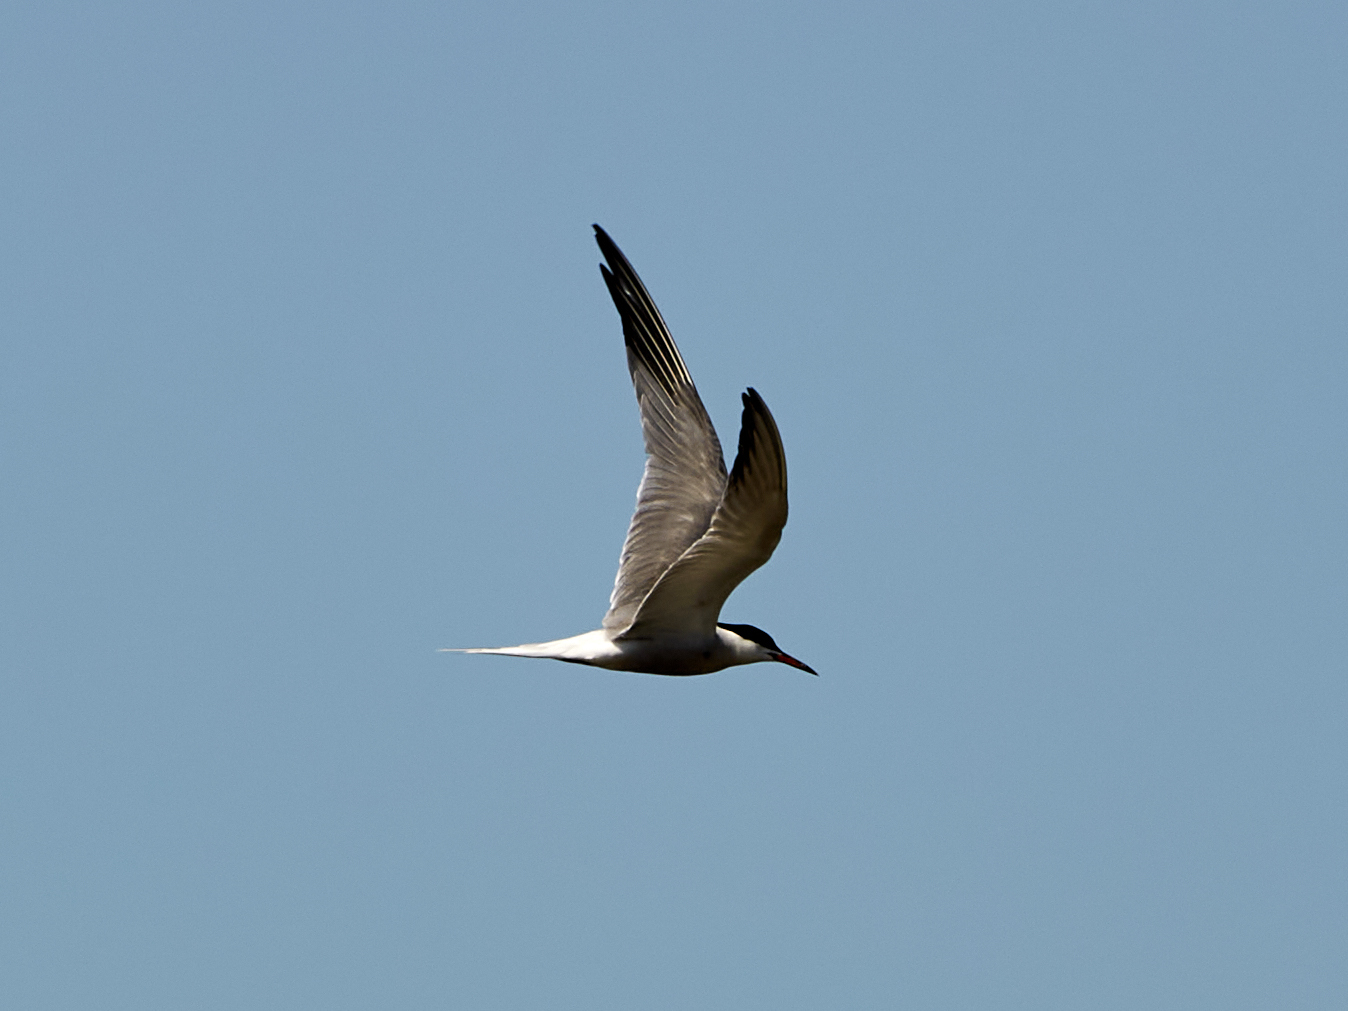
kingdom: Animalia
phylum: Chordata
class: Aves
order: Charadriiformes
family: Laridae
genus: Sterna
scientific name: Sterna hirundo
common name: Common tern
